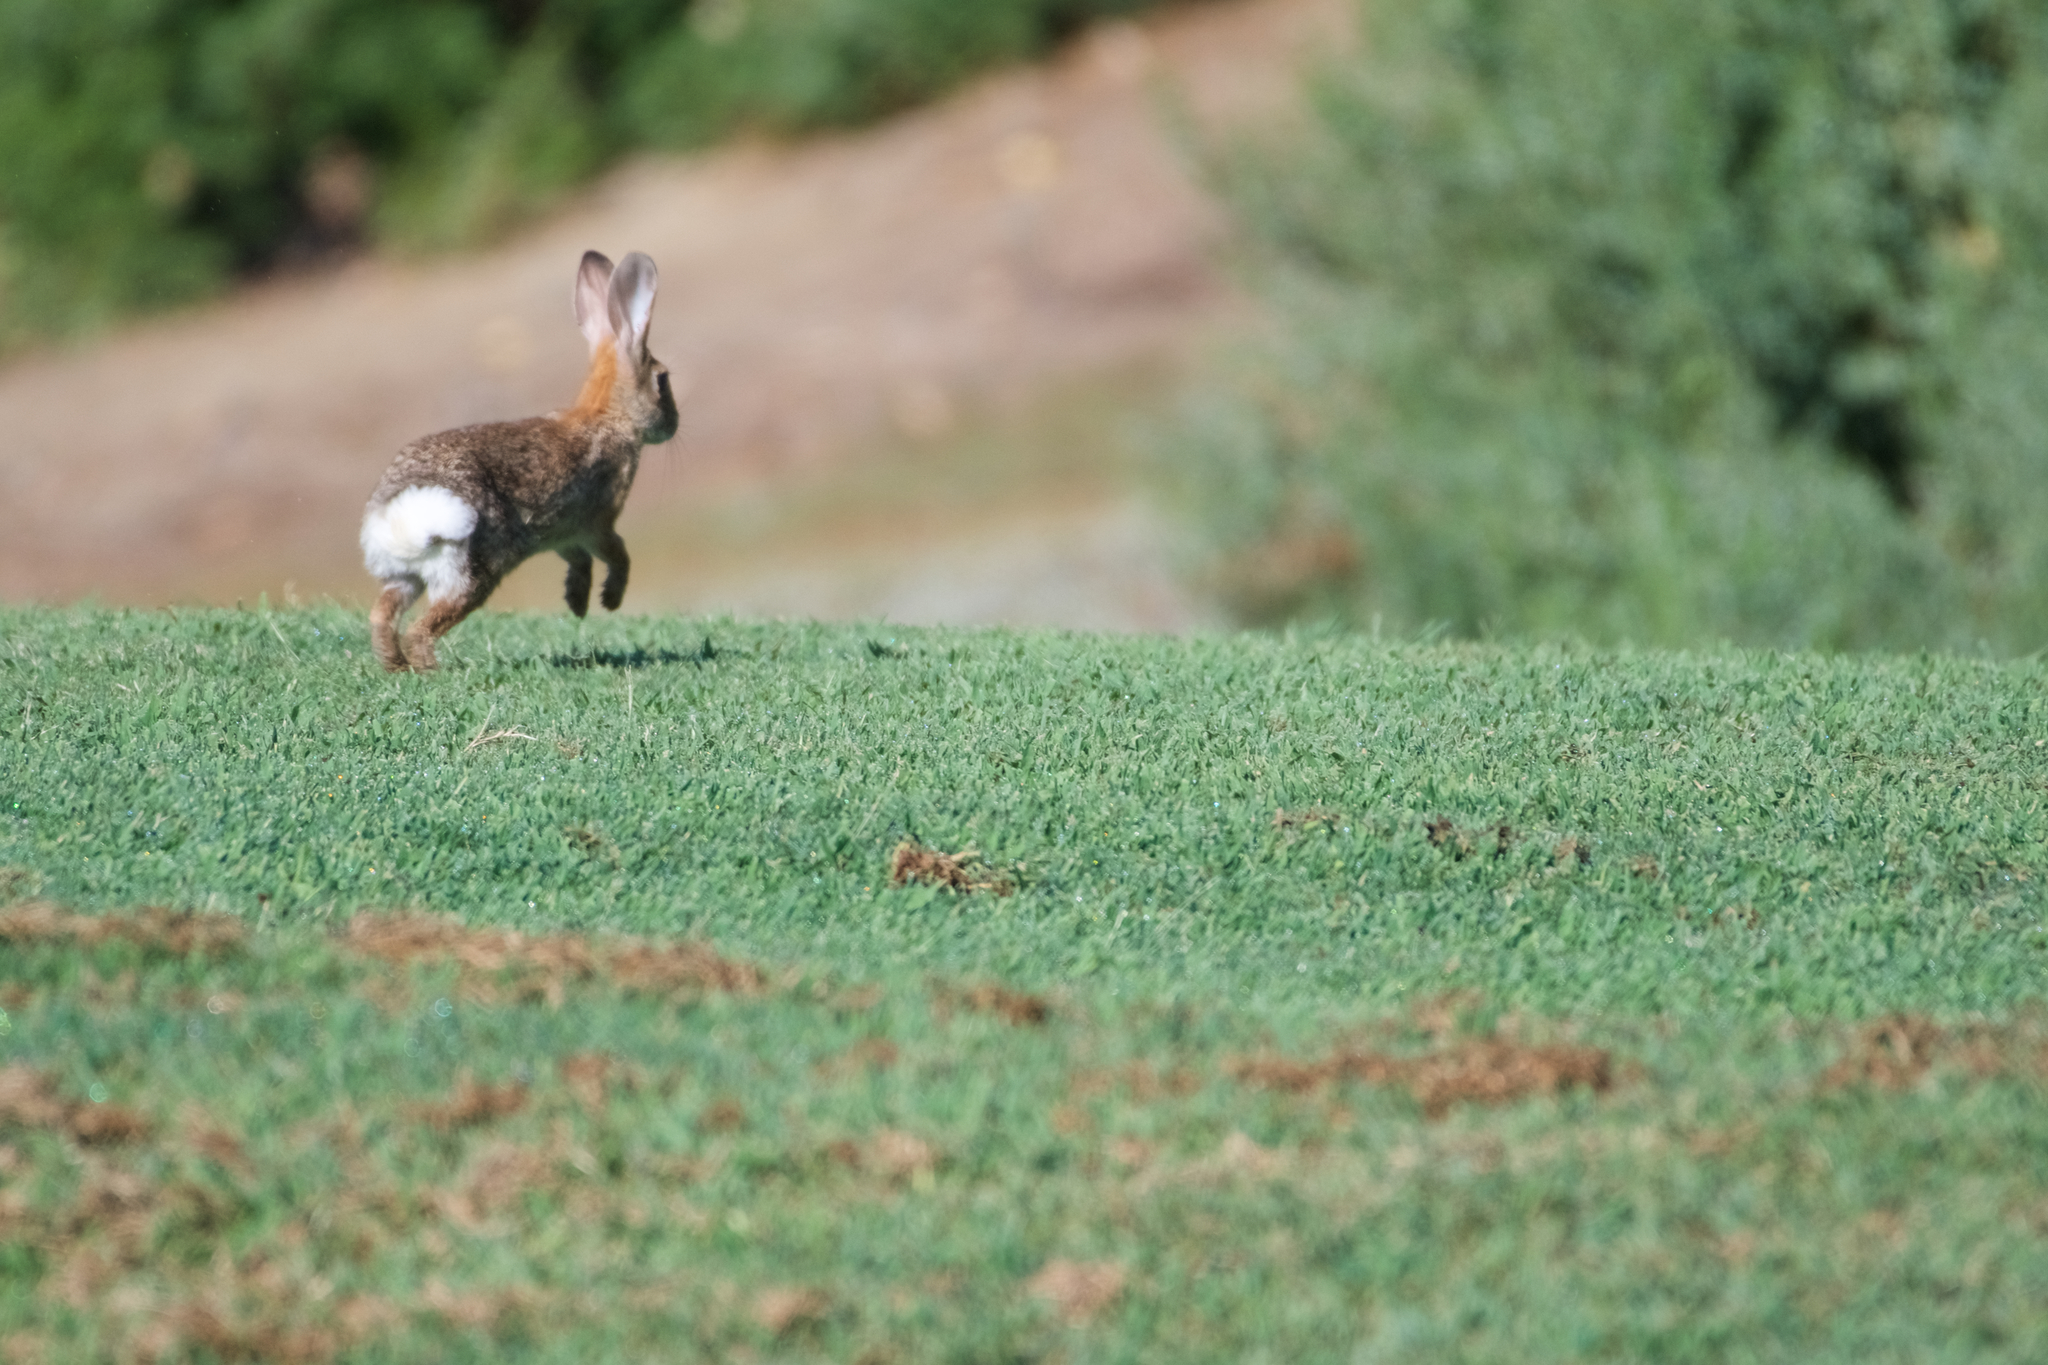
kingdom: Animalia
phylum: Chordata
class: Mammalia
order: Lagomorpha
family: Leporidae
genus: Sylvilagus
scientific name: Sylvilagus audubonii
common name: Desert cottontail
